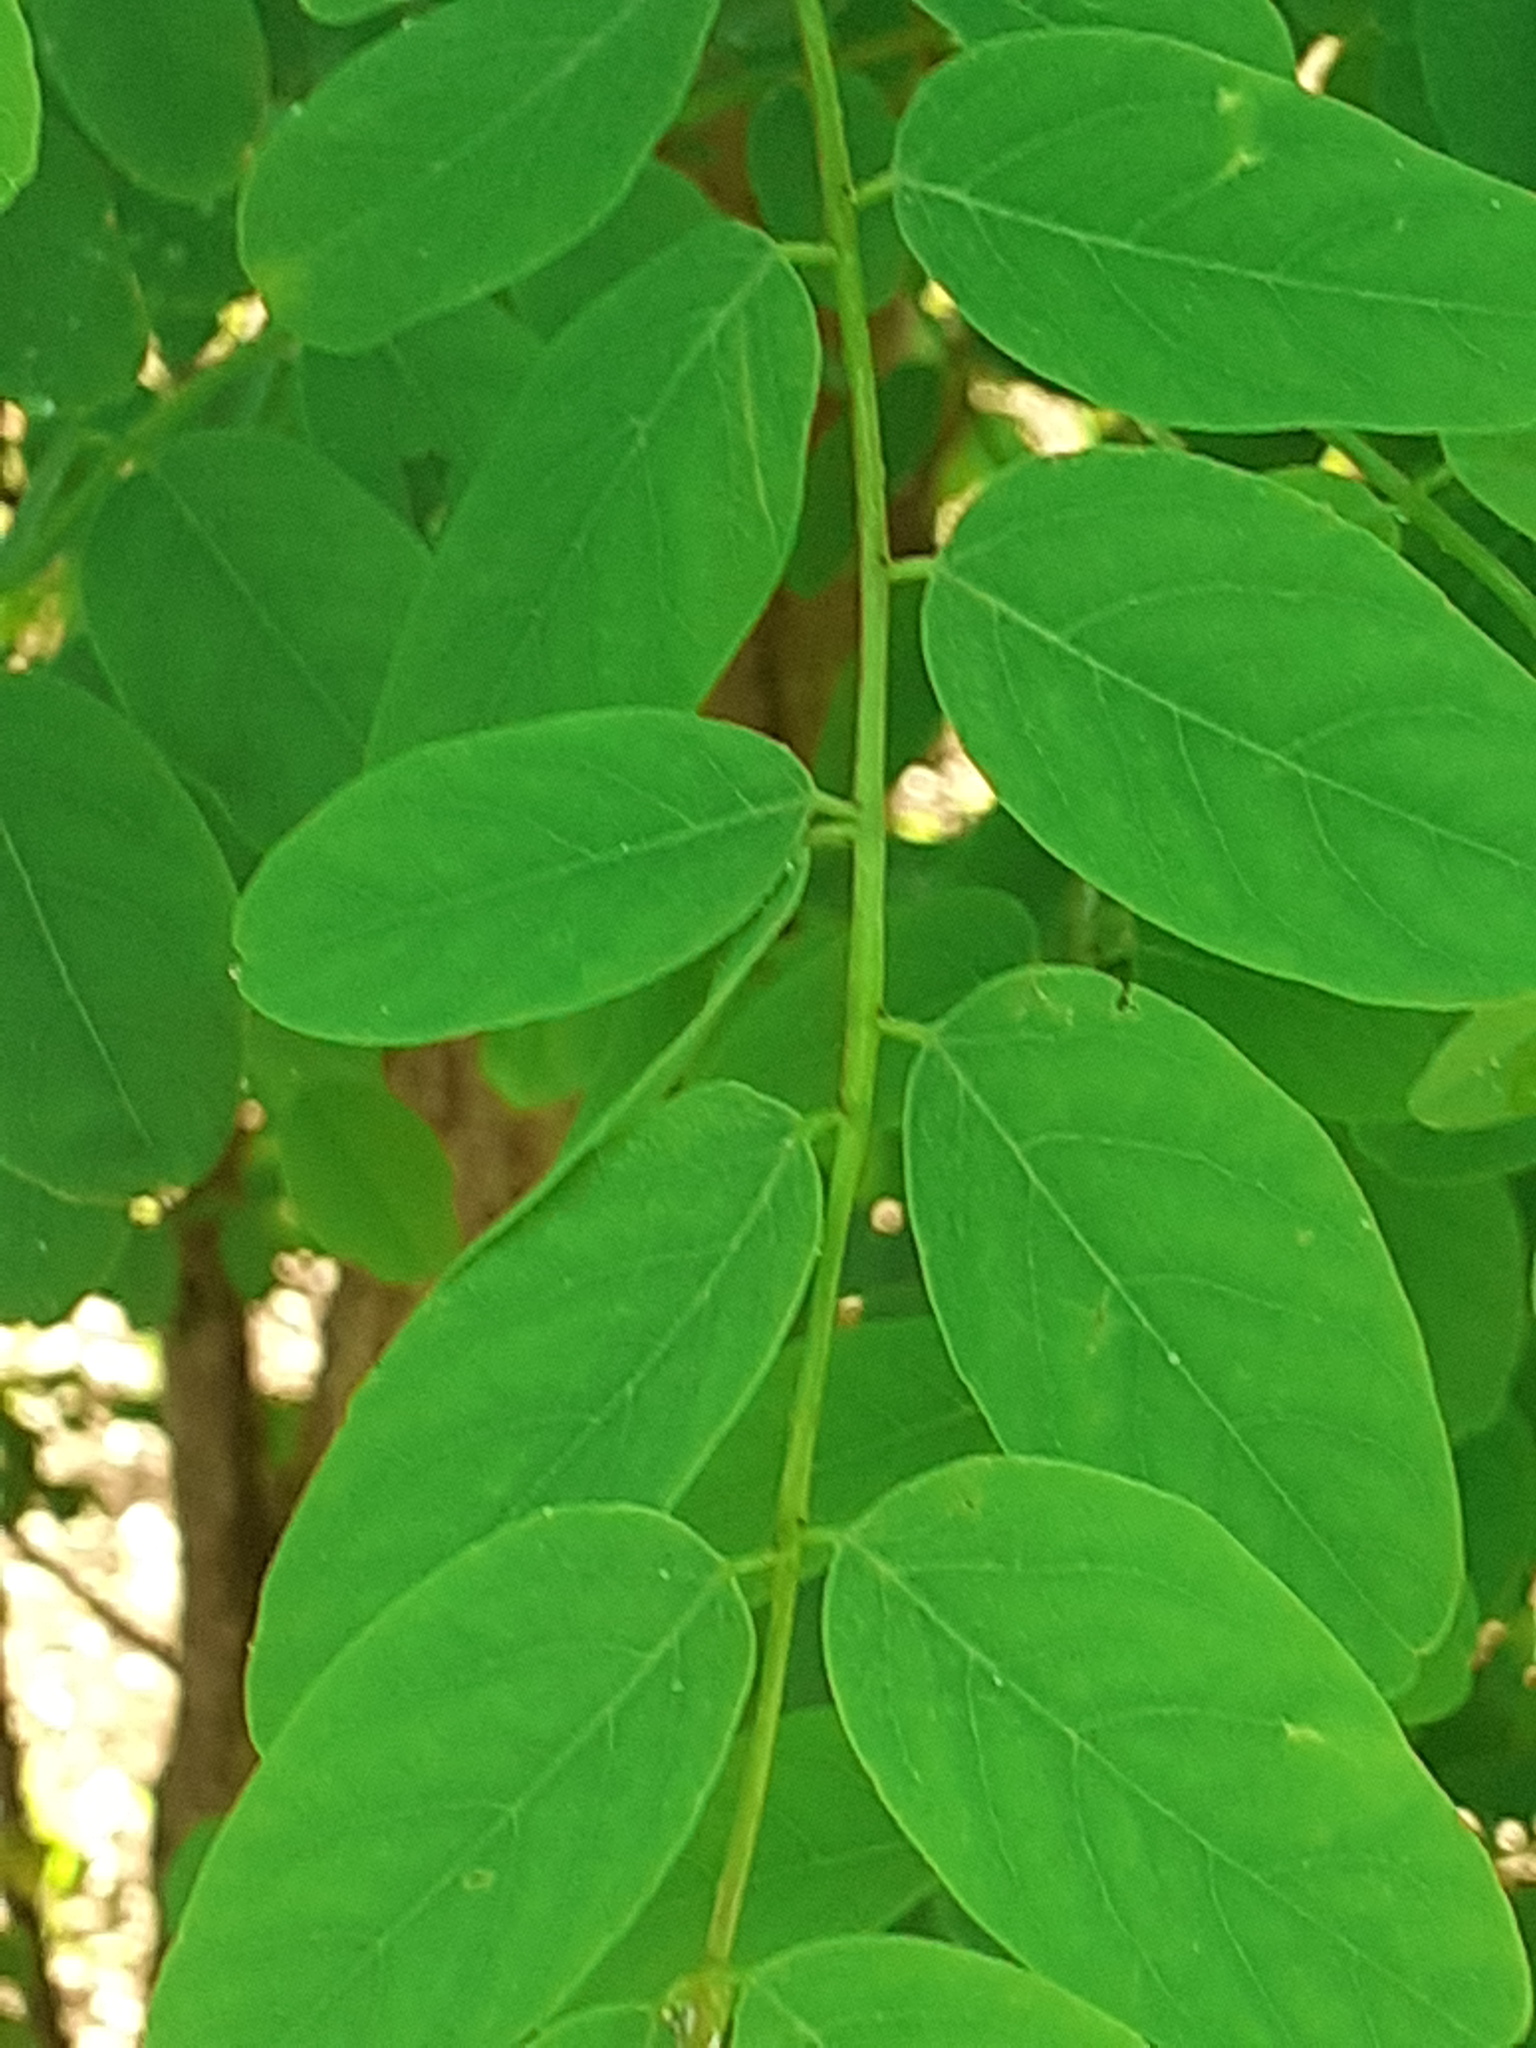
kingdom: Plantae
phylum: Tracheophyta
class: Magnoliopsida
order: Fabales
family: Fabaceae
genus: Robinia
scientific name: Robinia pseudoacacia
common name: Black locust
